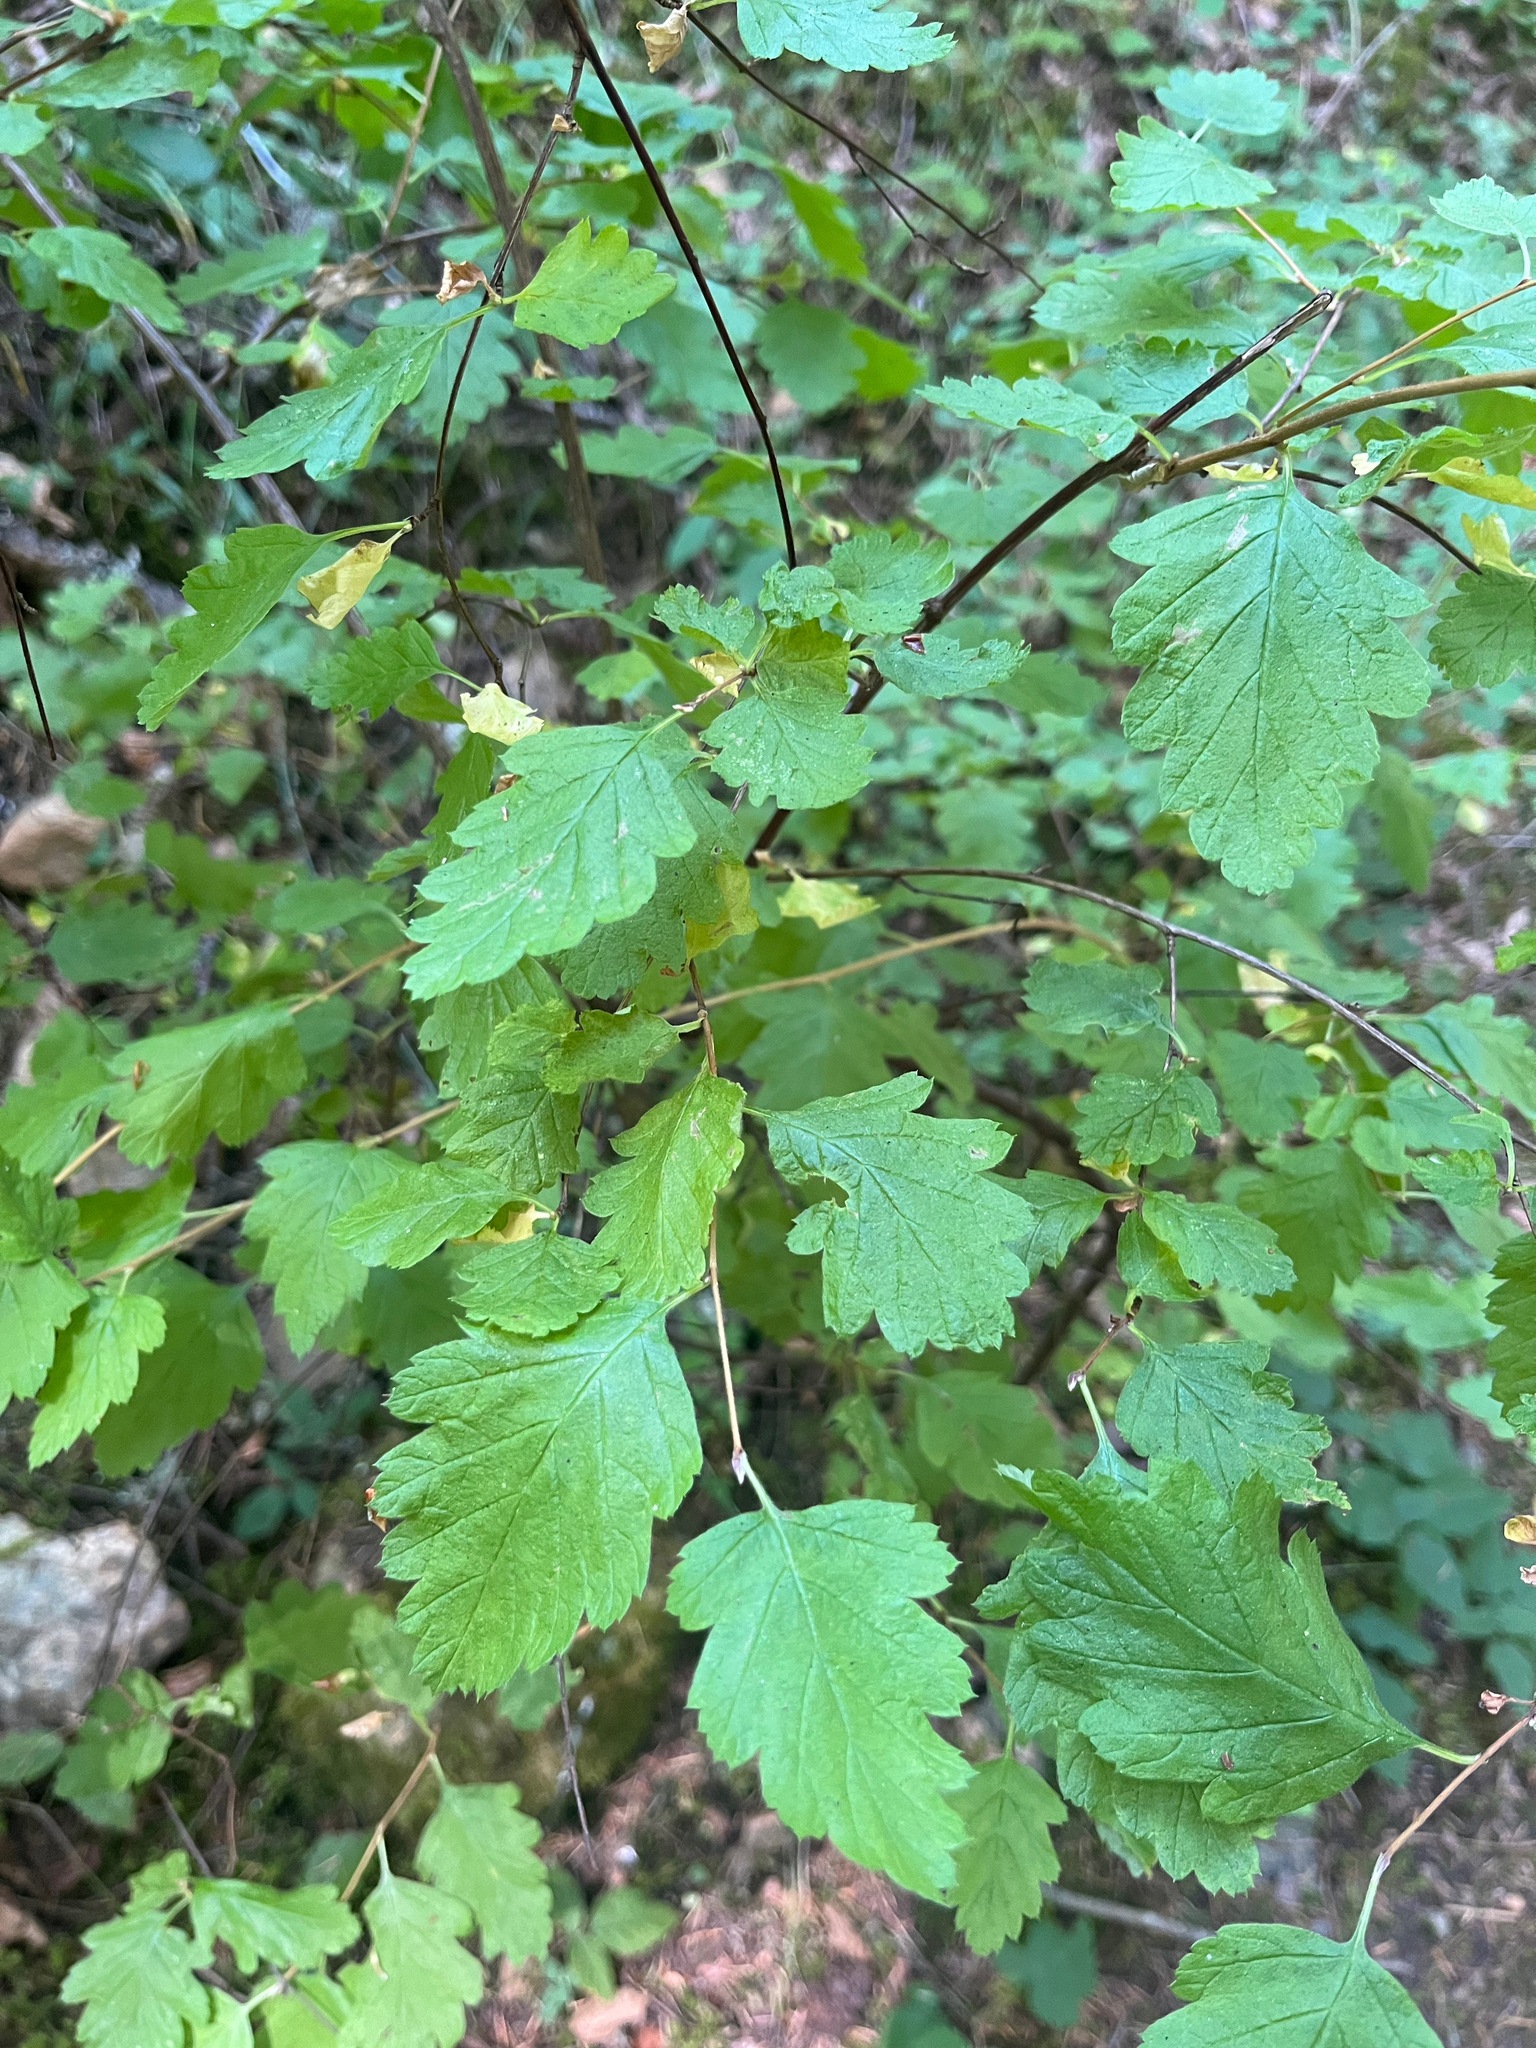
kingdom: Plantae
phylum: Tracheophyta
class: Magnoliopsida
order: Rosales
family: Rosaceae
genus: Holodiscus
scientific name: Holodiscus discolor
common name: Oceanspray
